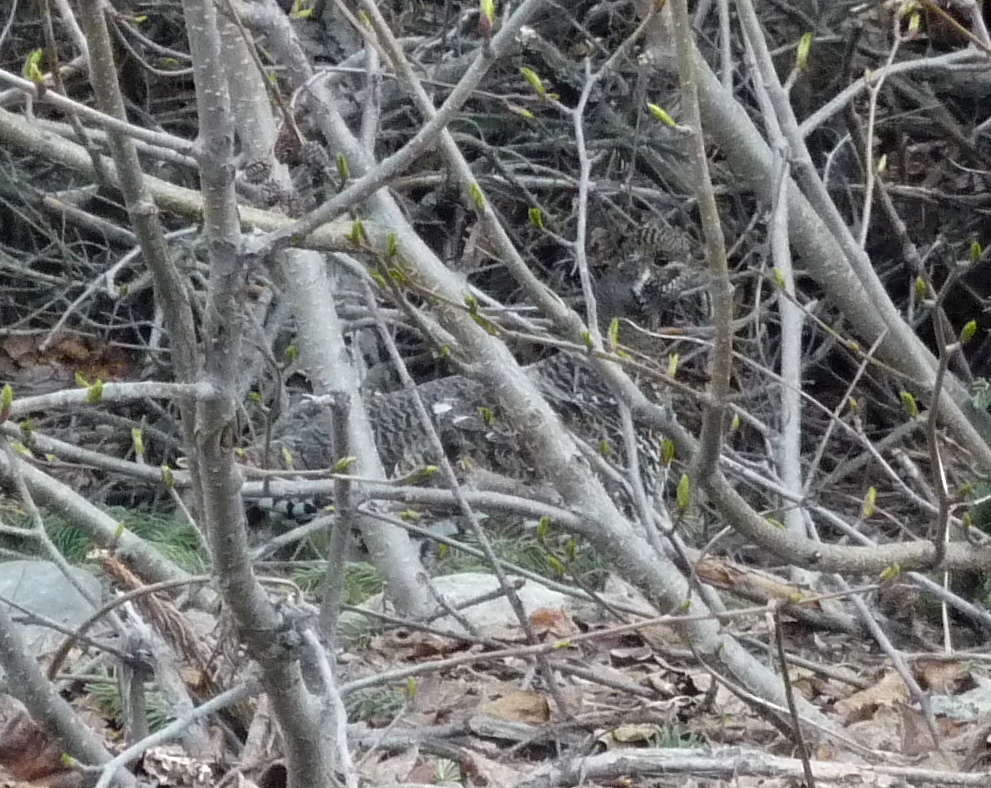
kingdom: Animalia
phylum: Chordata
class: Aves
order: Galliformes
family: Phasianidae
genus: Canachites
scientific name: Canachites canadensis
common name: Spruce grouse
